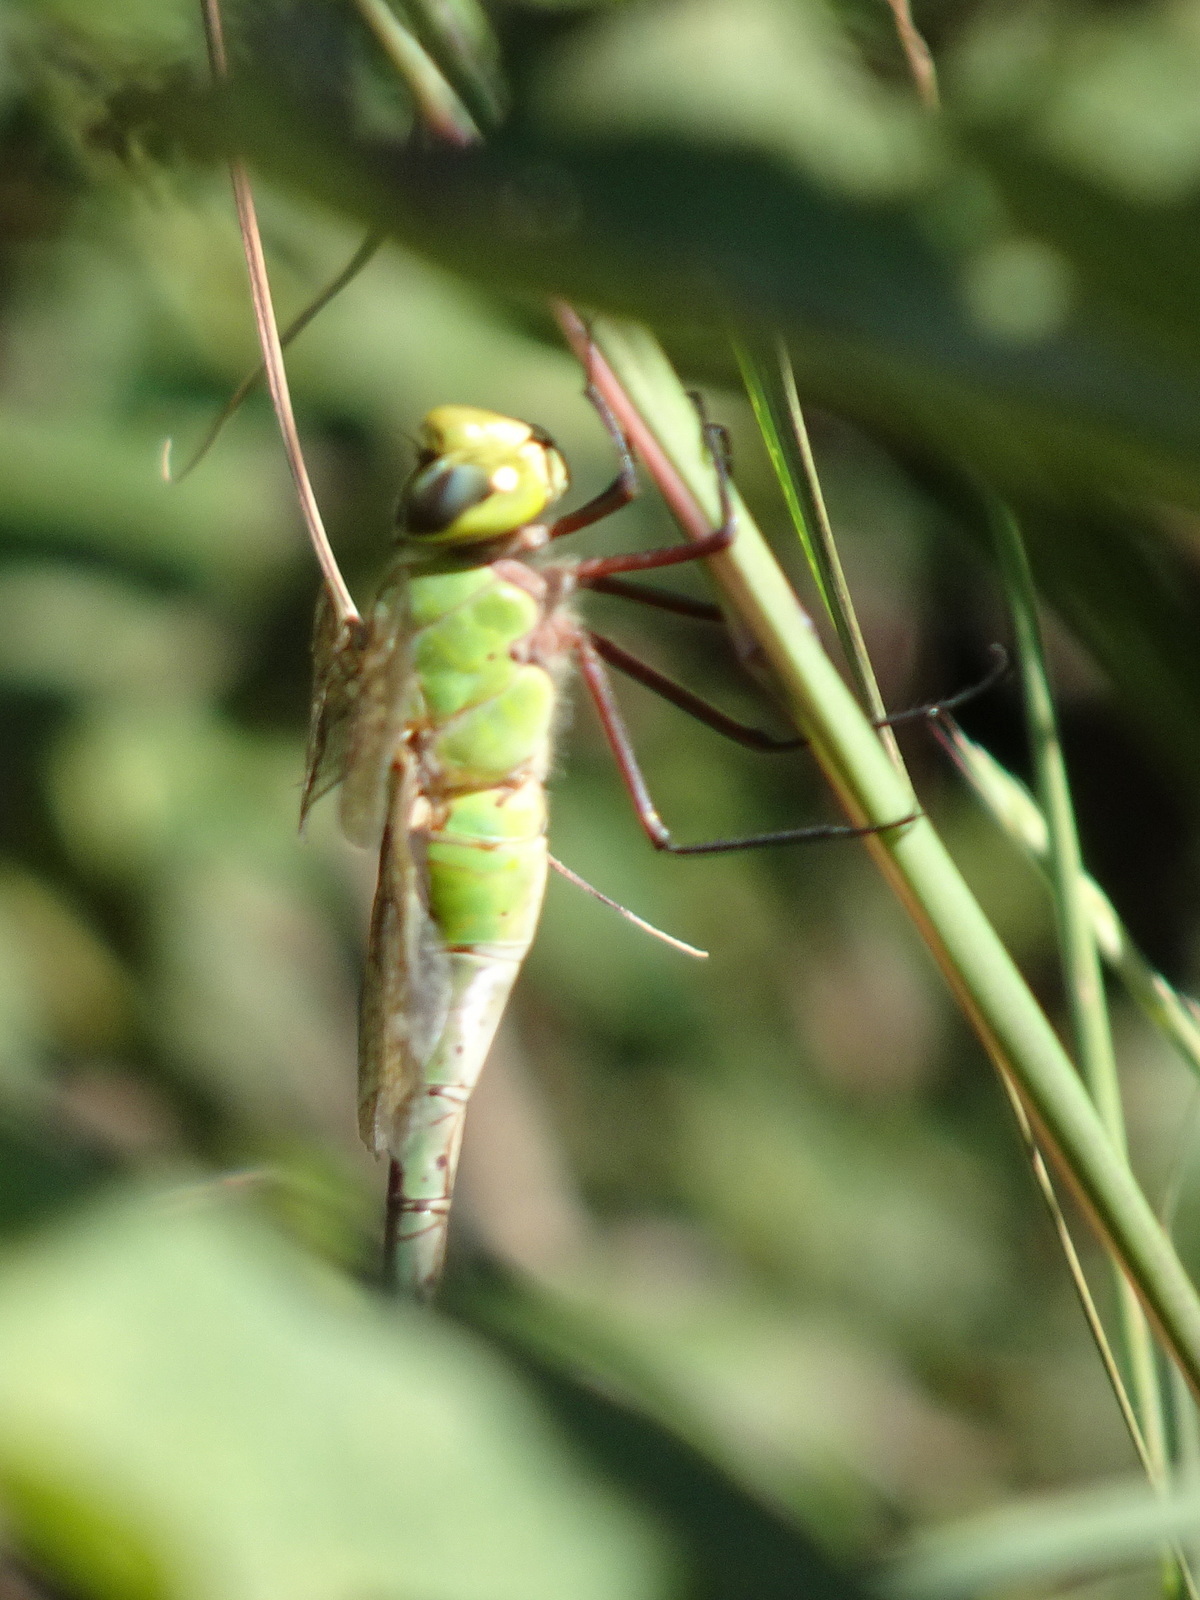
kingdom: Animalia
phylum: Arthropoda
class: Insecta
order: Odonata
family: Aeshnidae
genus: Anax
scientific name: Anax junius
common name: Common green darner
